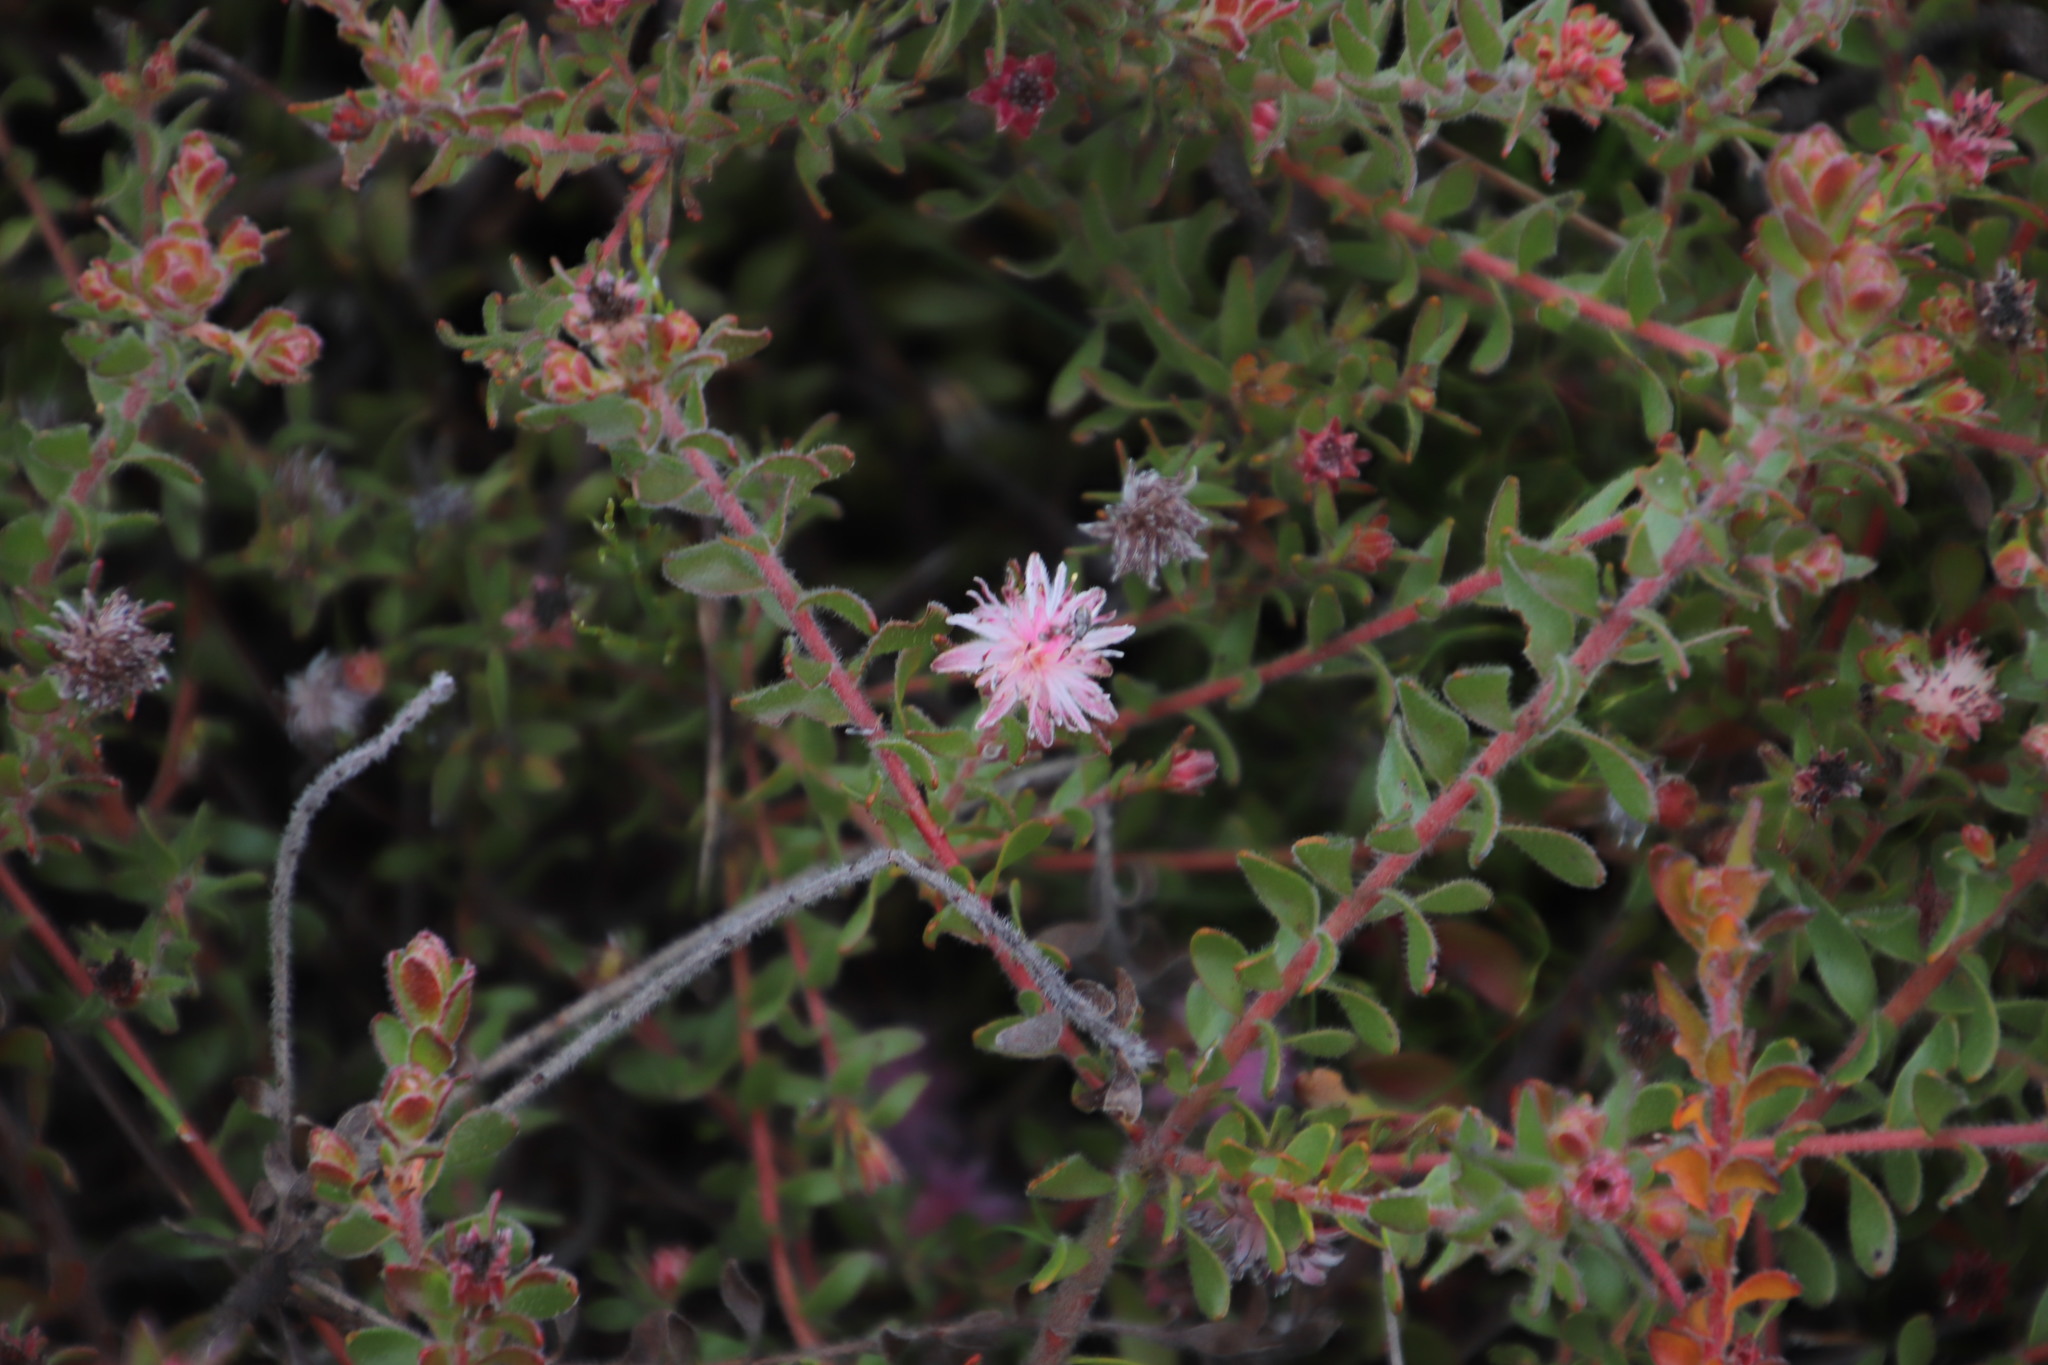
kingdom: Plantae
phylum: Tracheophyta
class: Magnoliopsida
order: Proteales
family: Proteaceae
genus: Diastella
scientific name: Diastella divaricata
